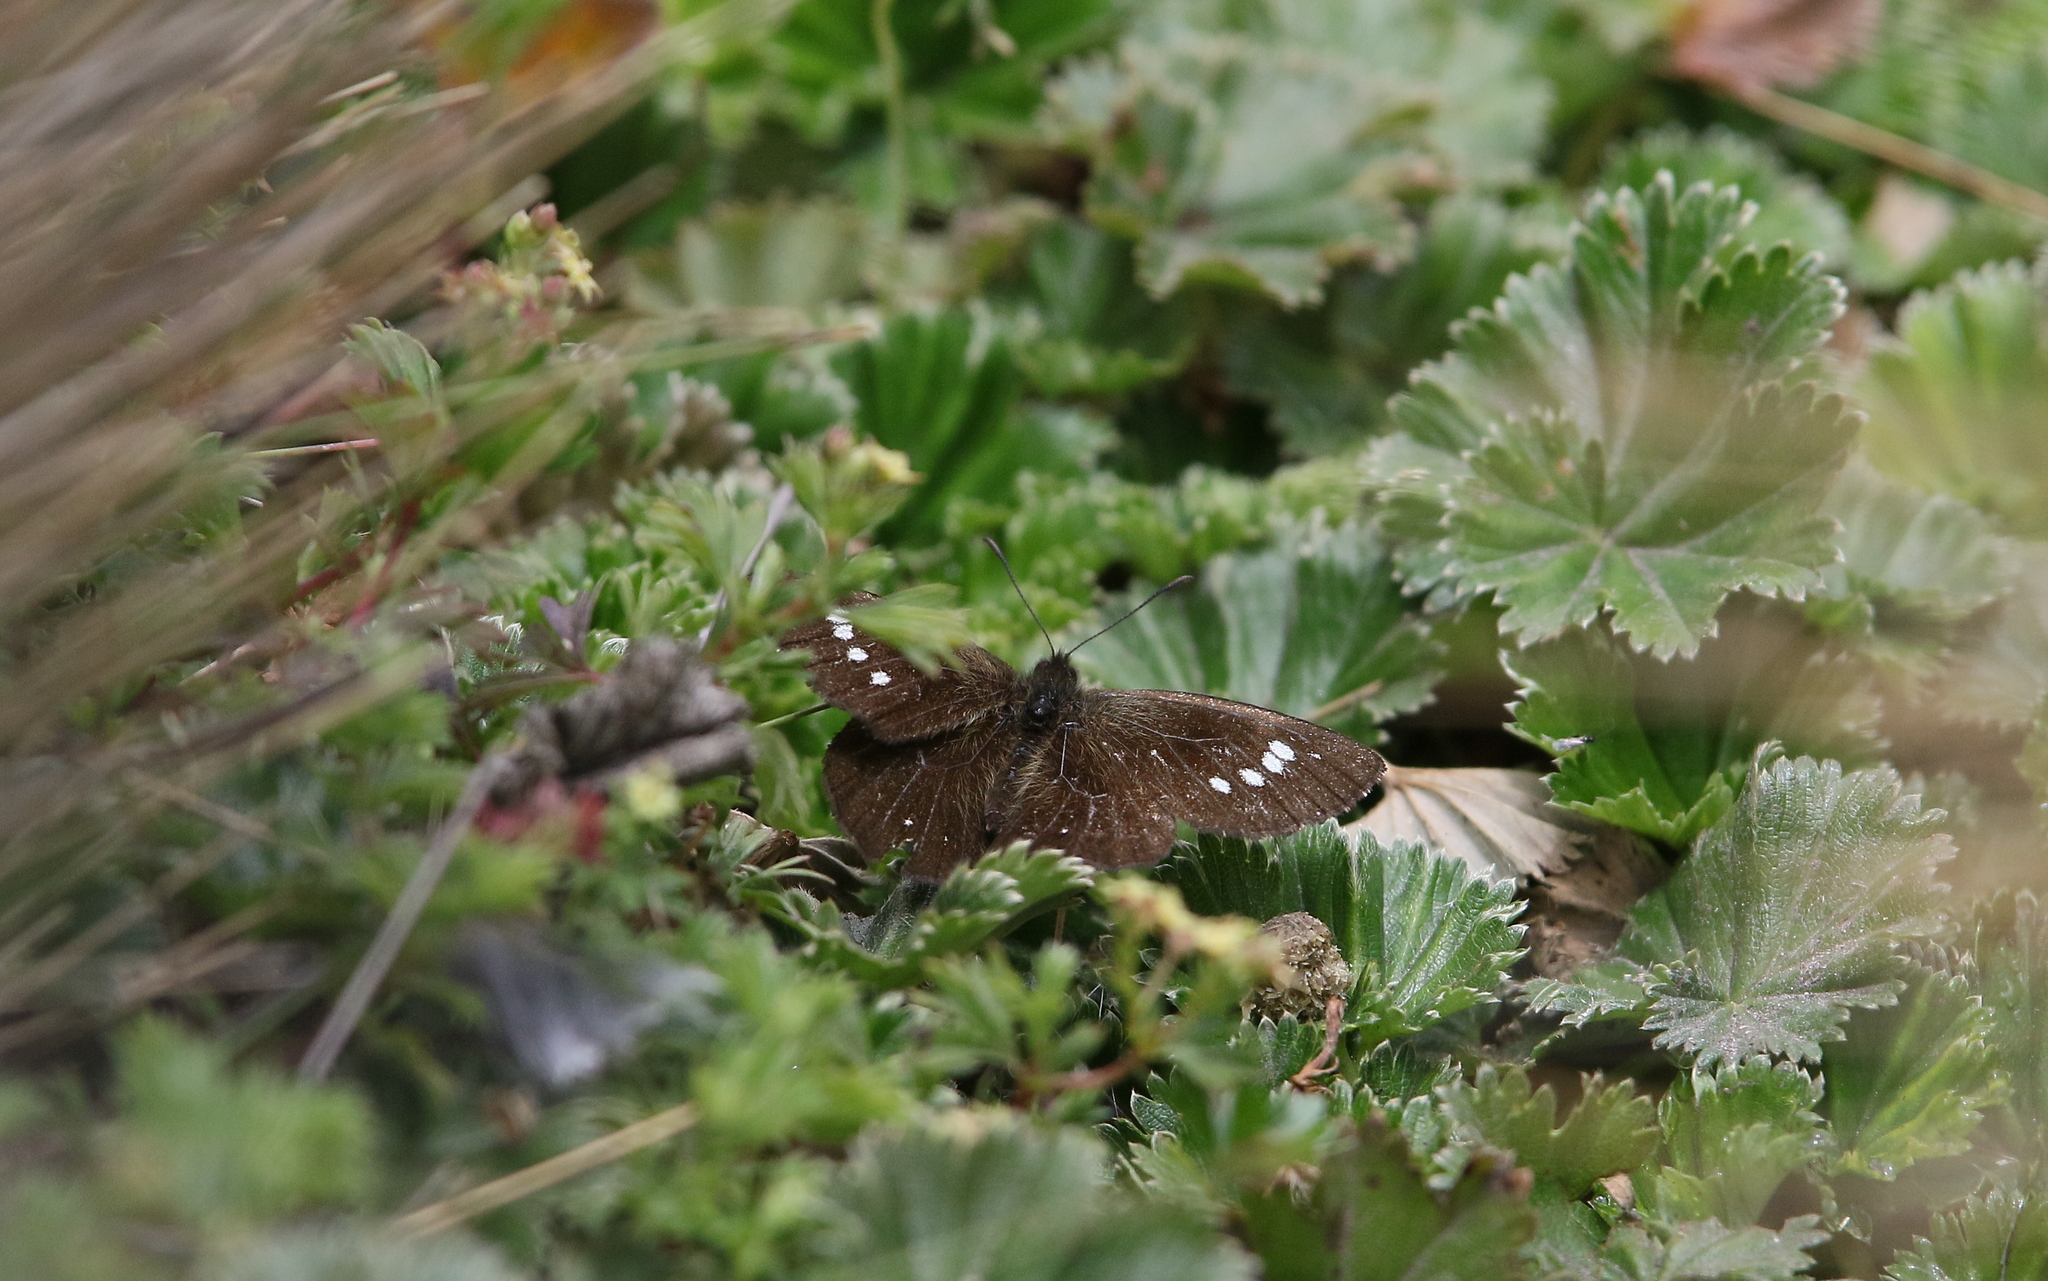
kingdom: Animalia
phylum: Arthropoda
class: Insecta
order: Lepidoptera
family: Nymphalidae
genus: Altopedaliodes
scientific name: Altopedaliodes tena
